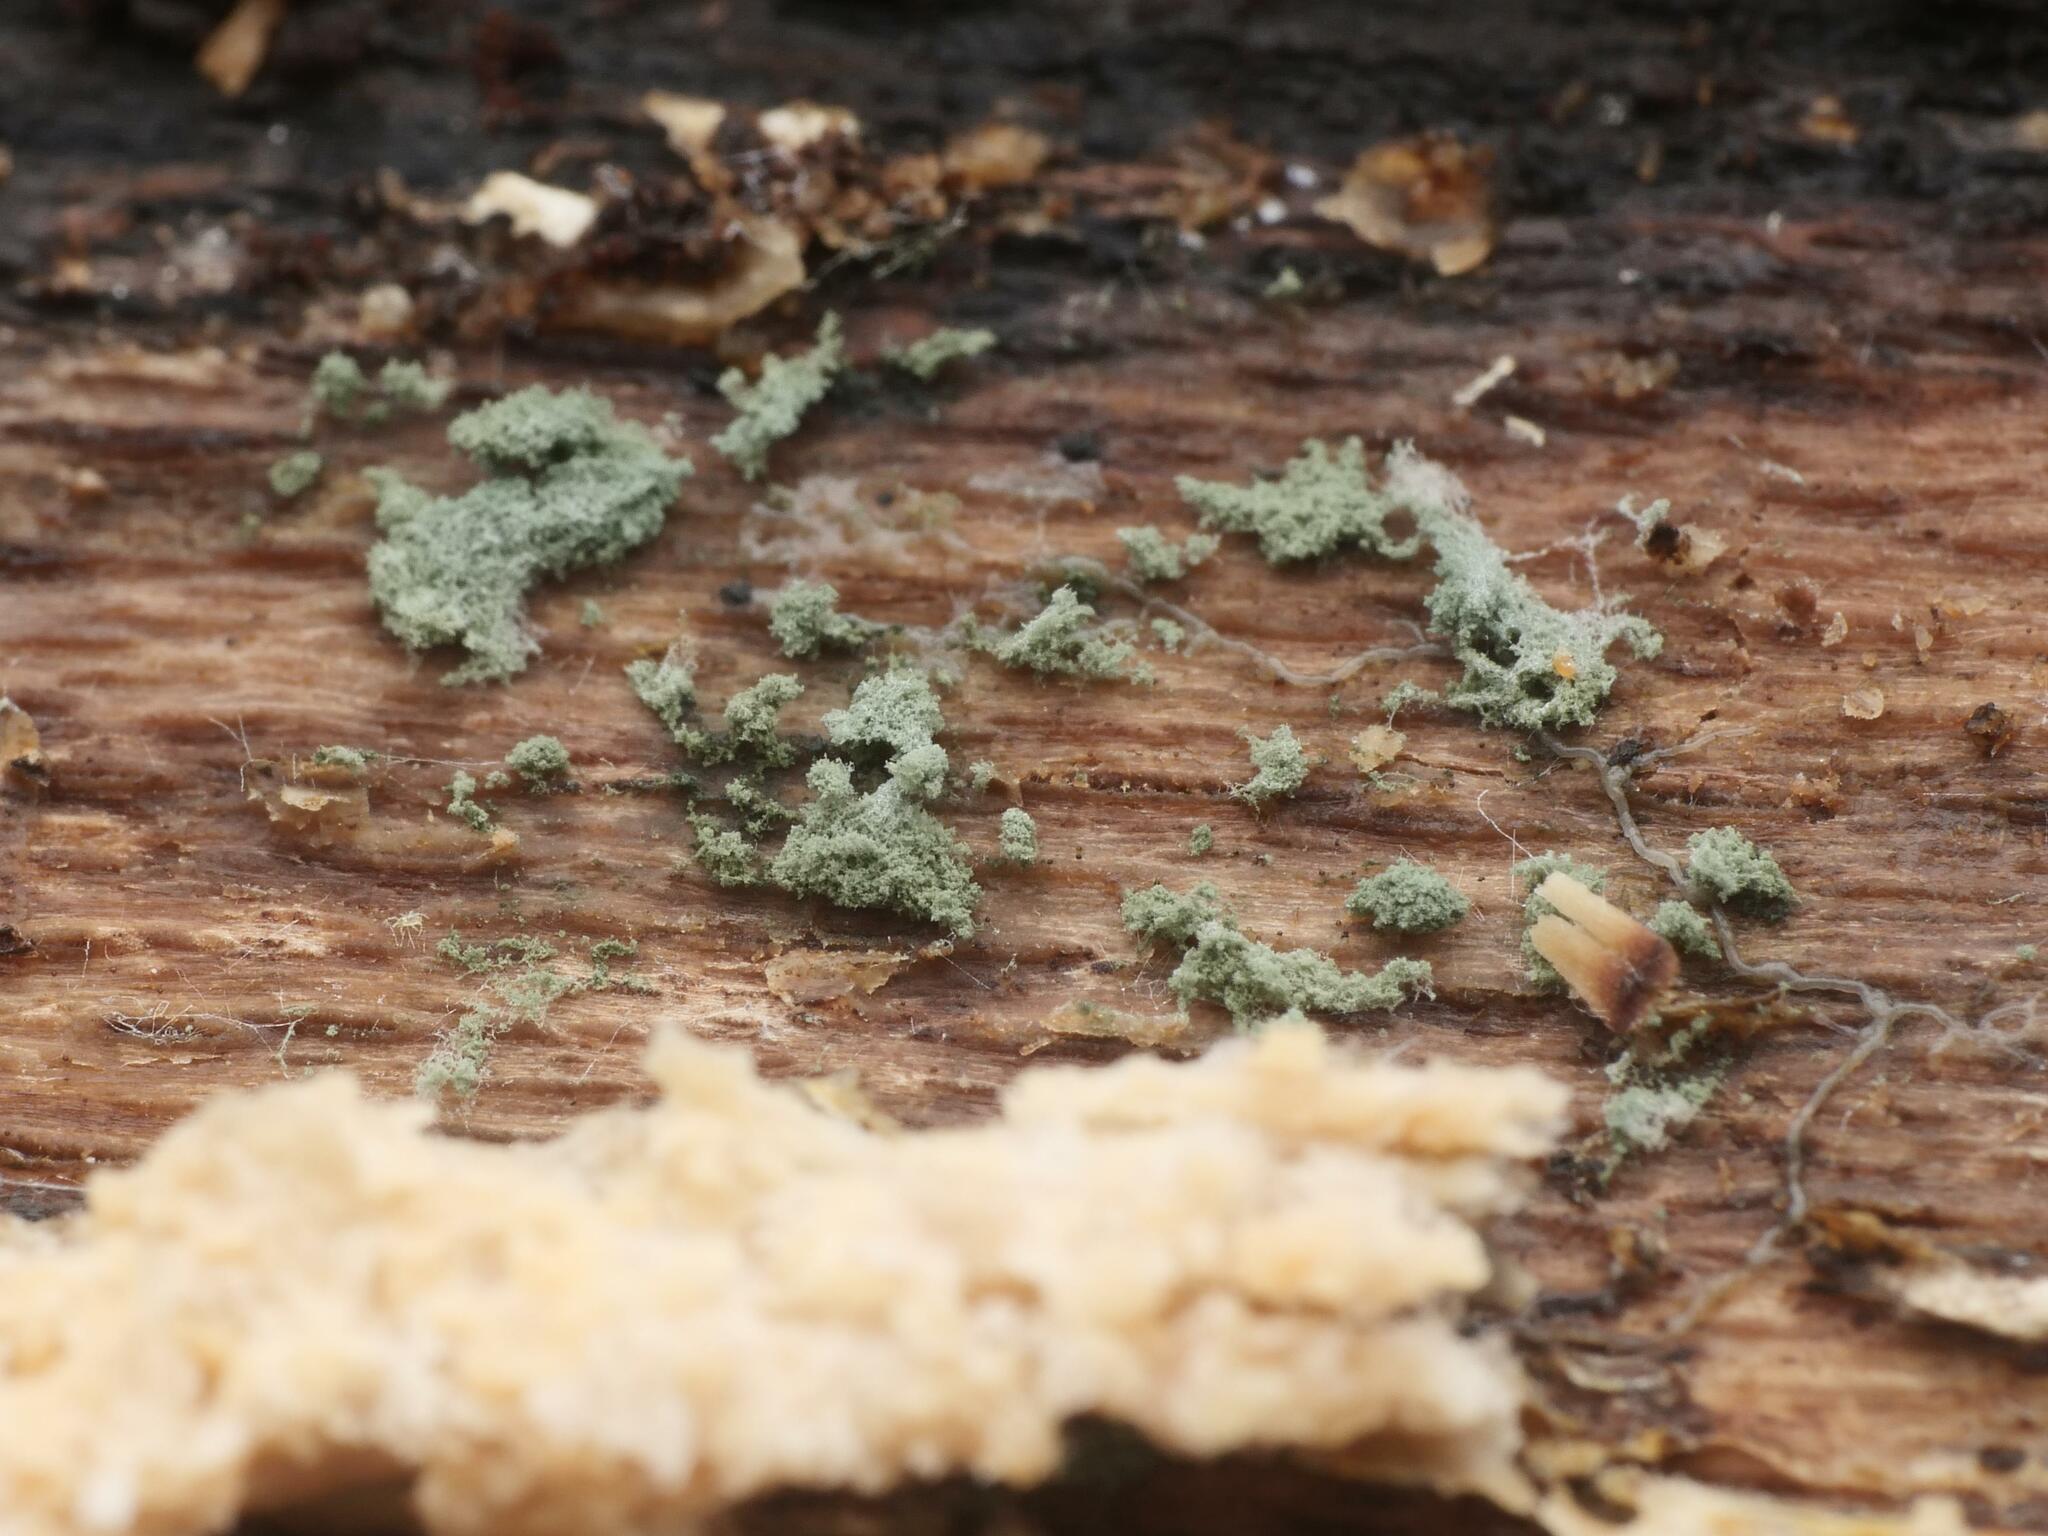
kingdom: Fungi
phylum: Ascomycota
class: Sordariomycetes
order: Hypocreales
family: Hypocreaceae
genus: Trichoderma
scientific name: Trichoderma viride
